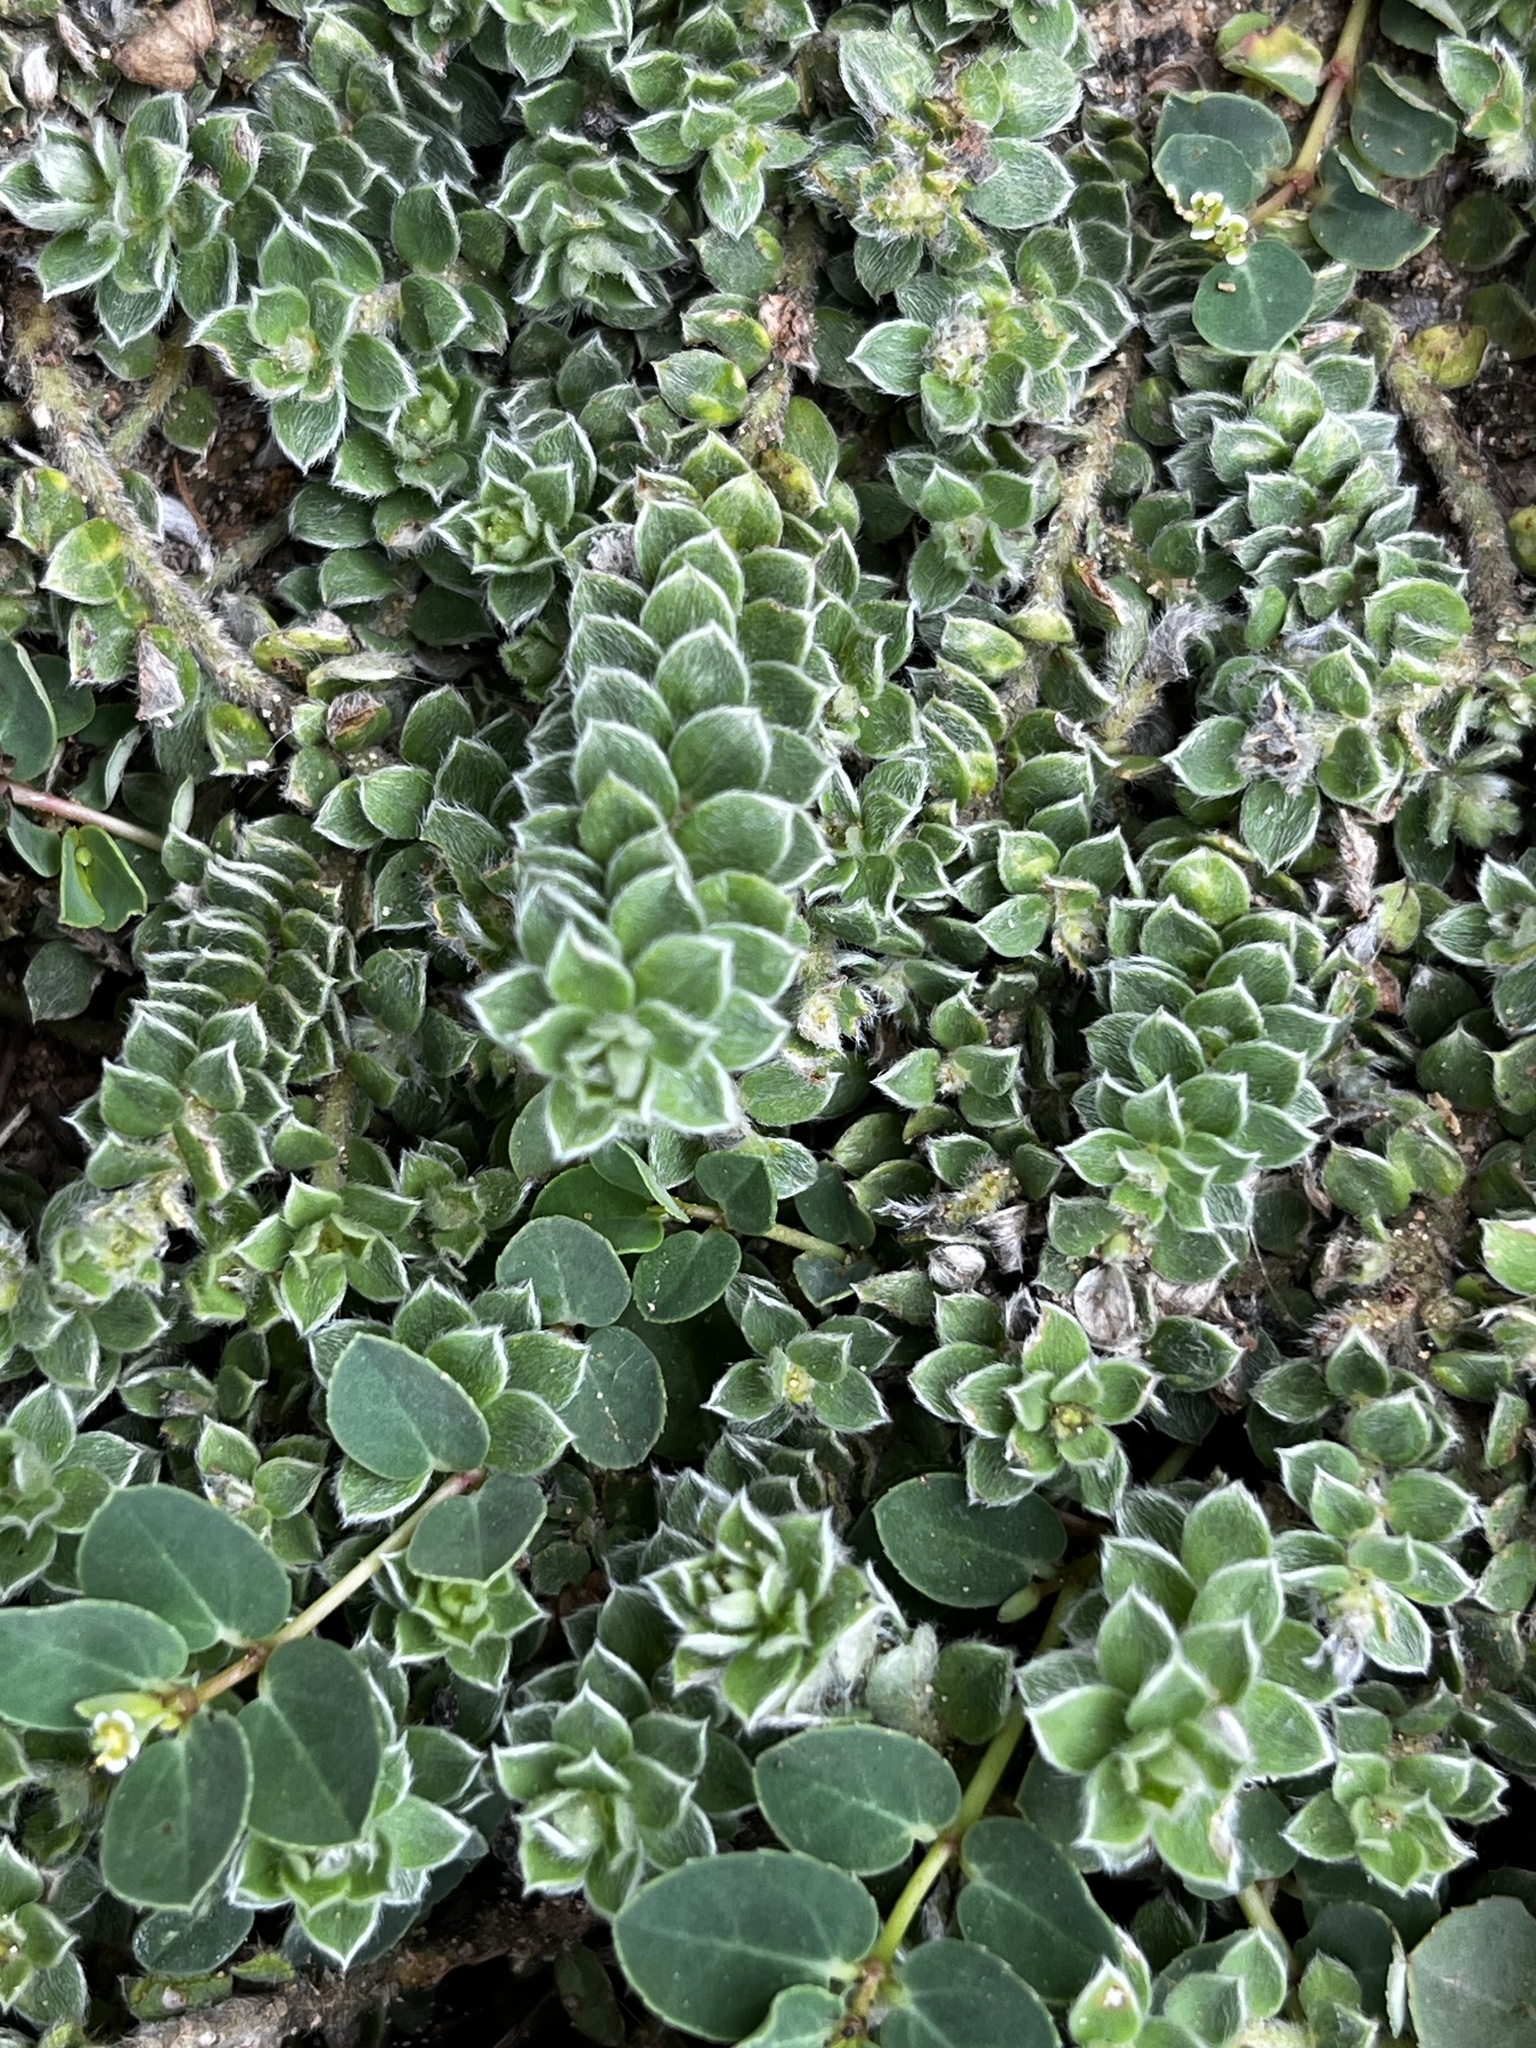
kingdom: Plantae
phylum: Tracheophyta
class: Magnoliopsida
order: Fabales
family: Fabaceae
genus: Crotalaria
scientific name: Crotalaria similis
